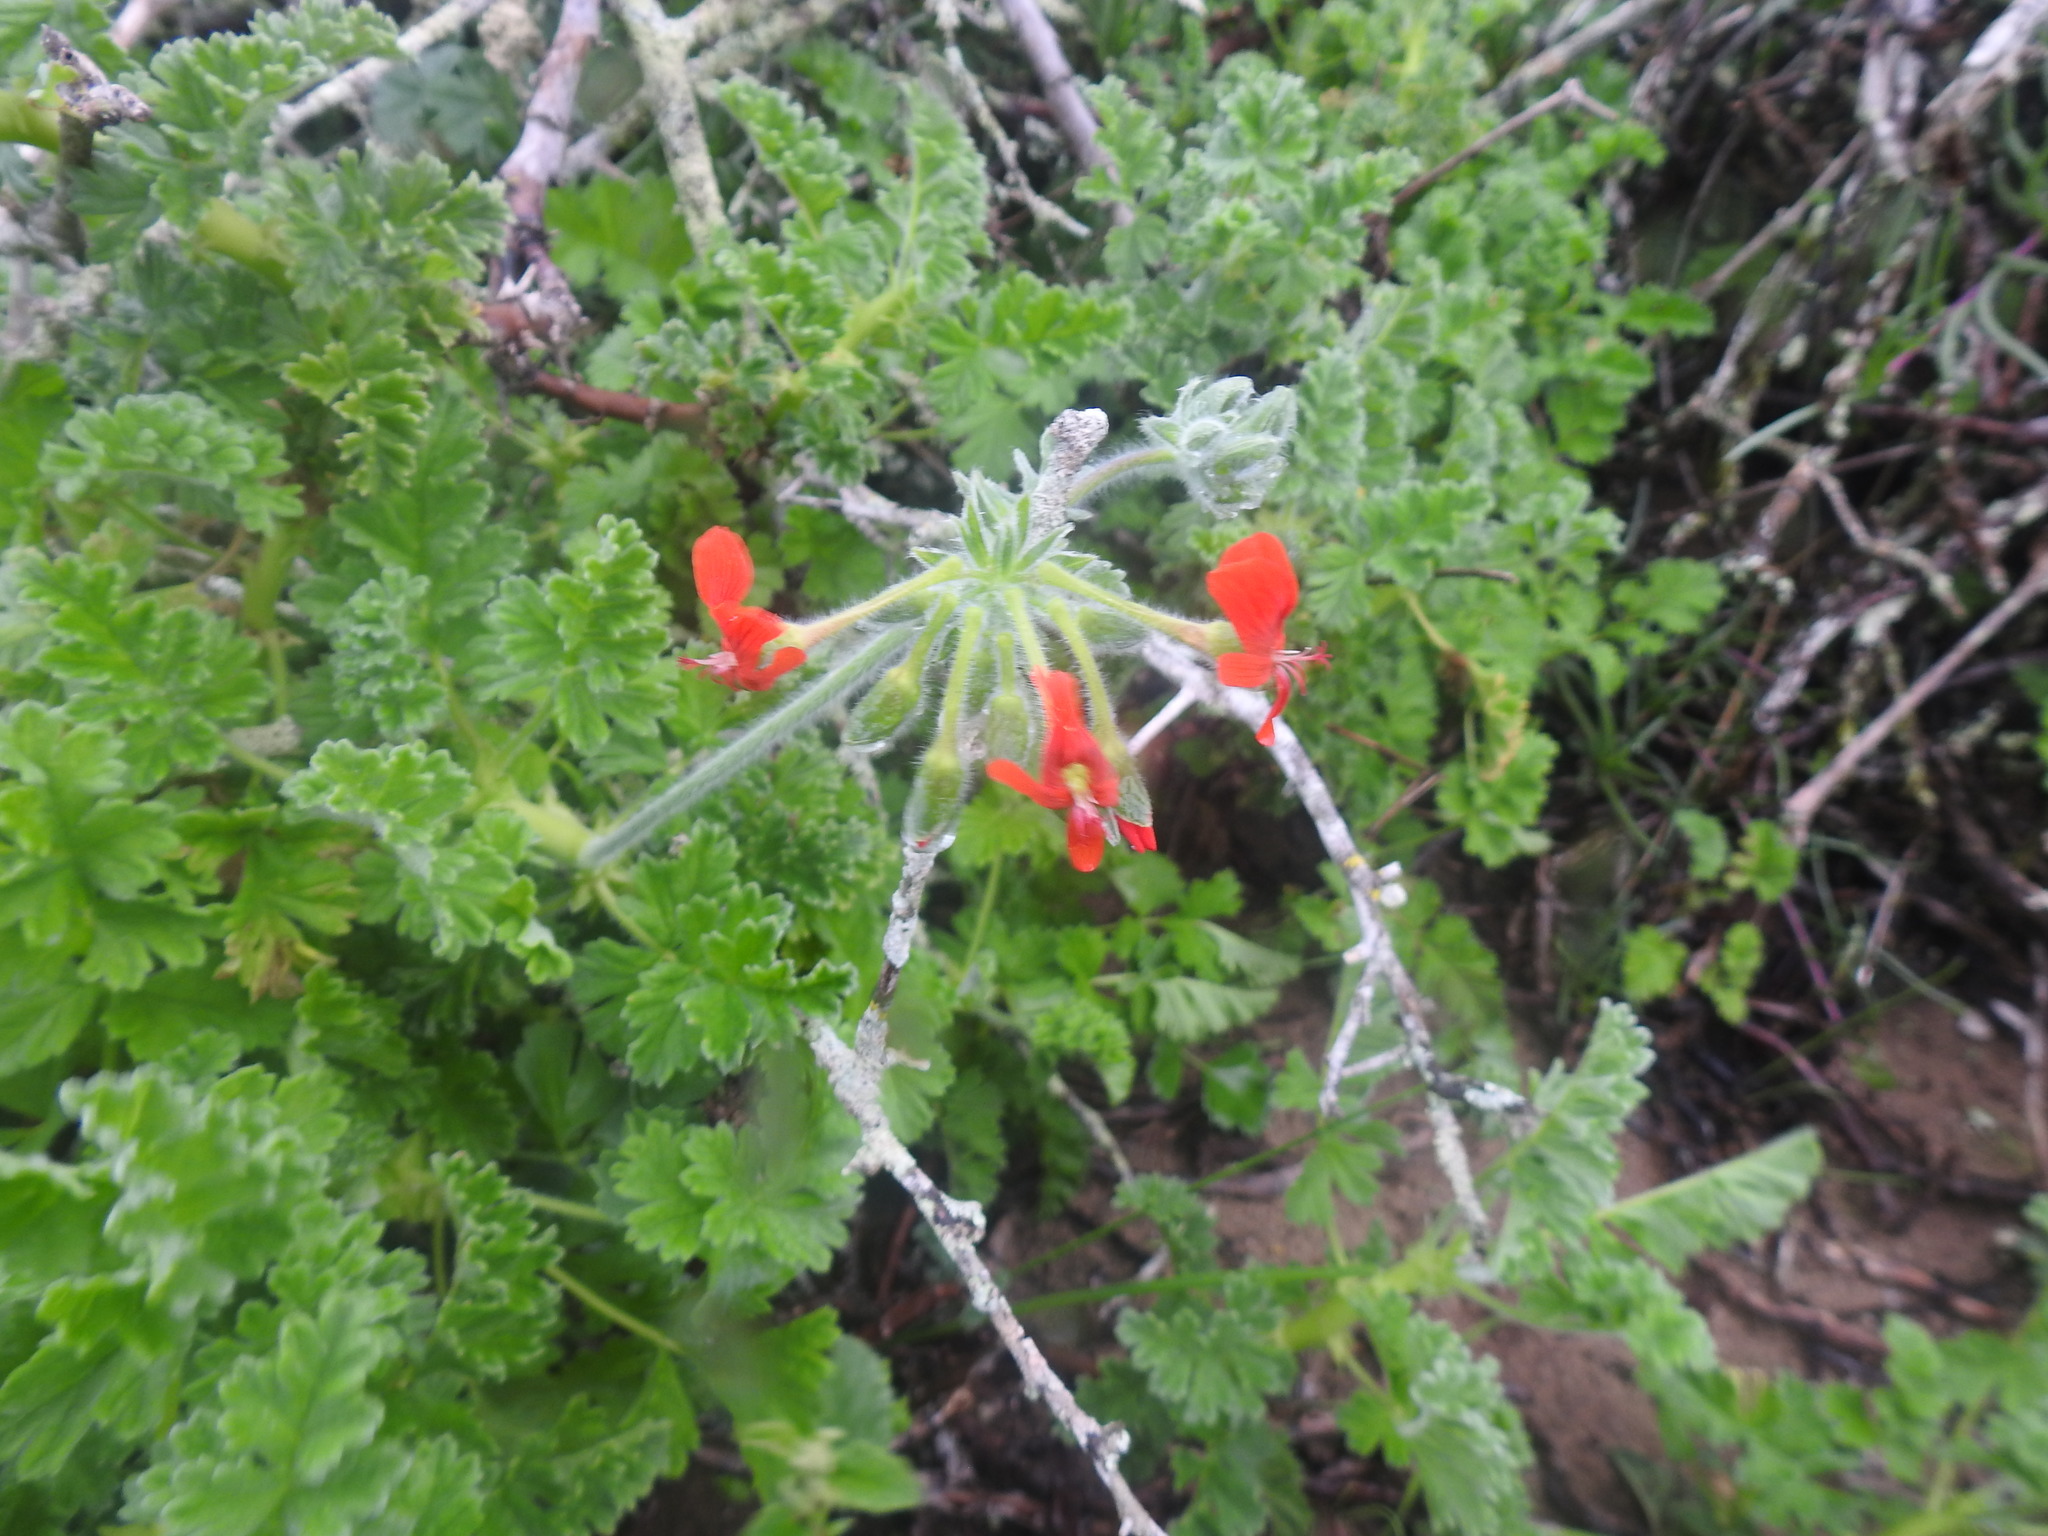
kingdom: Plantae
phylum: Tracheophyta
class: Magnoliopsida
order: Geraniales
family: Geraniaceae
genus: Pelargonium
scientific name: Pelargonium fulgidum
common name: Celandine-leaf pelargonium
